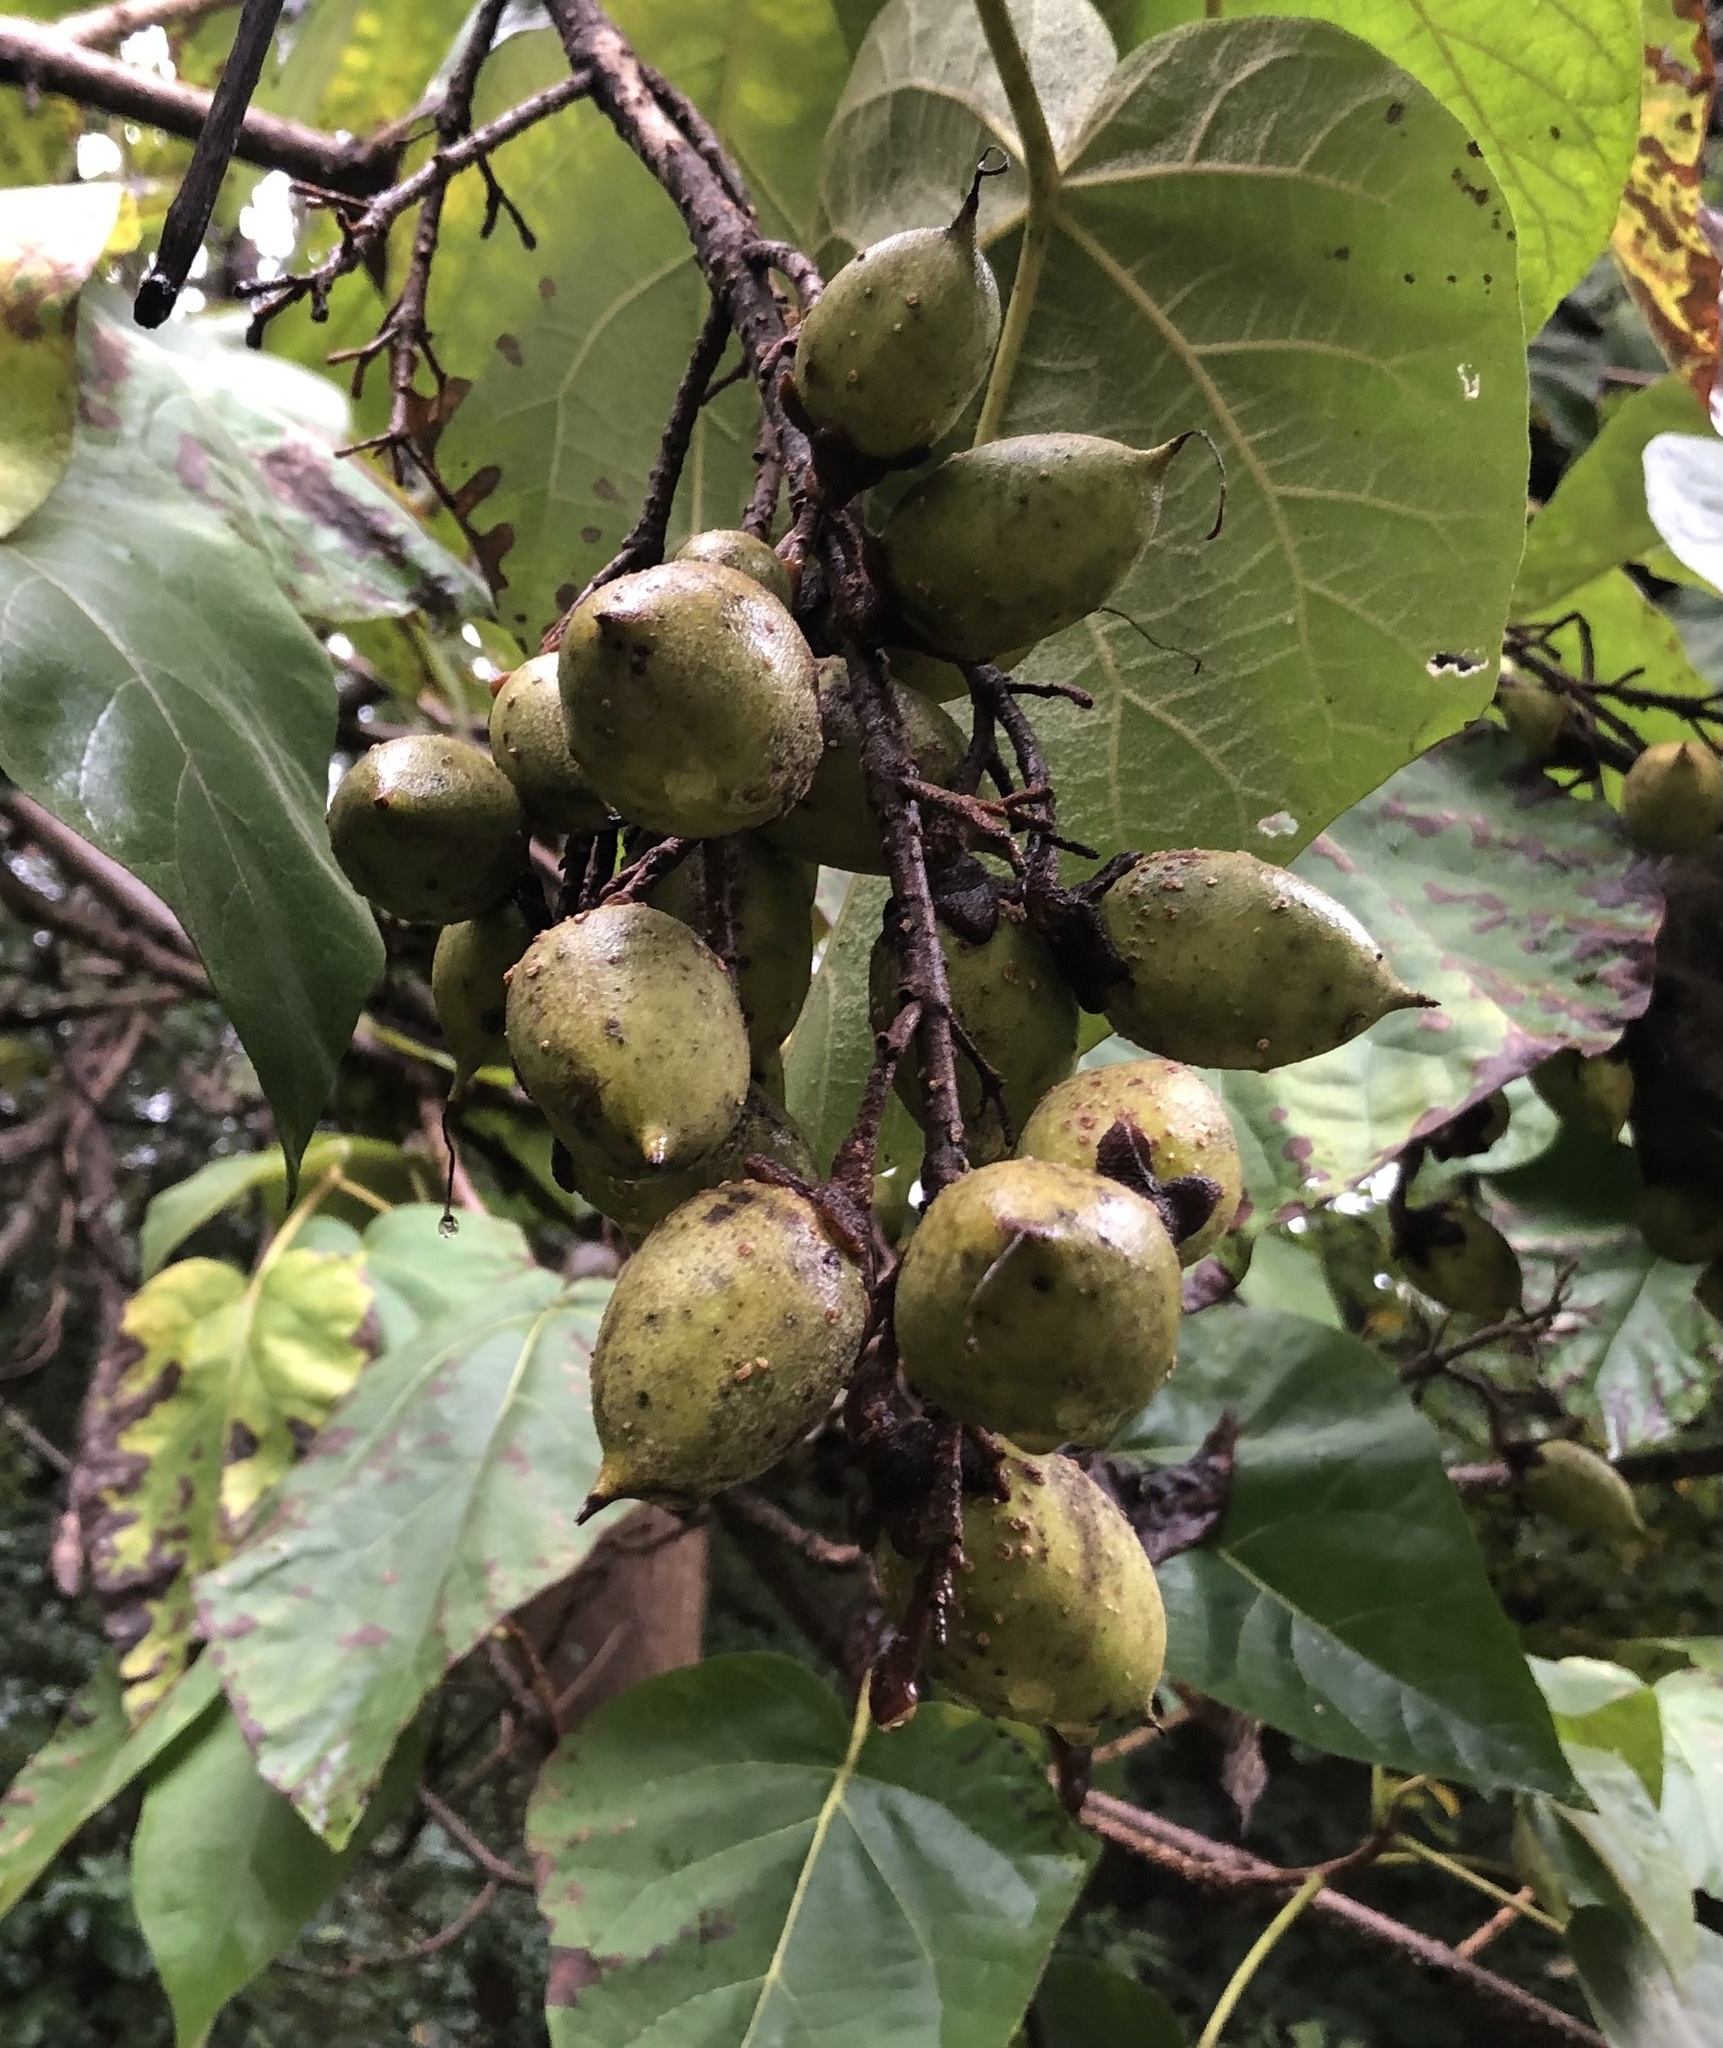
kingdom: Plantae
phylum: Tracheophyta
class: Magnoliopsida
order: Lamiales
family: Paulowniaceae
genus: Paulownia
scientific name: Paulownia tomentosa
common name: Foxglove-tree
